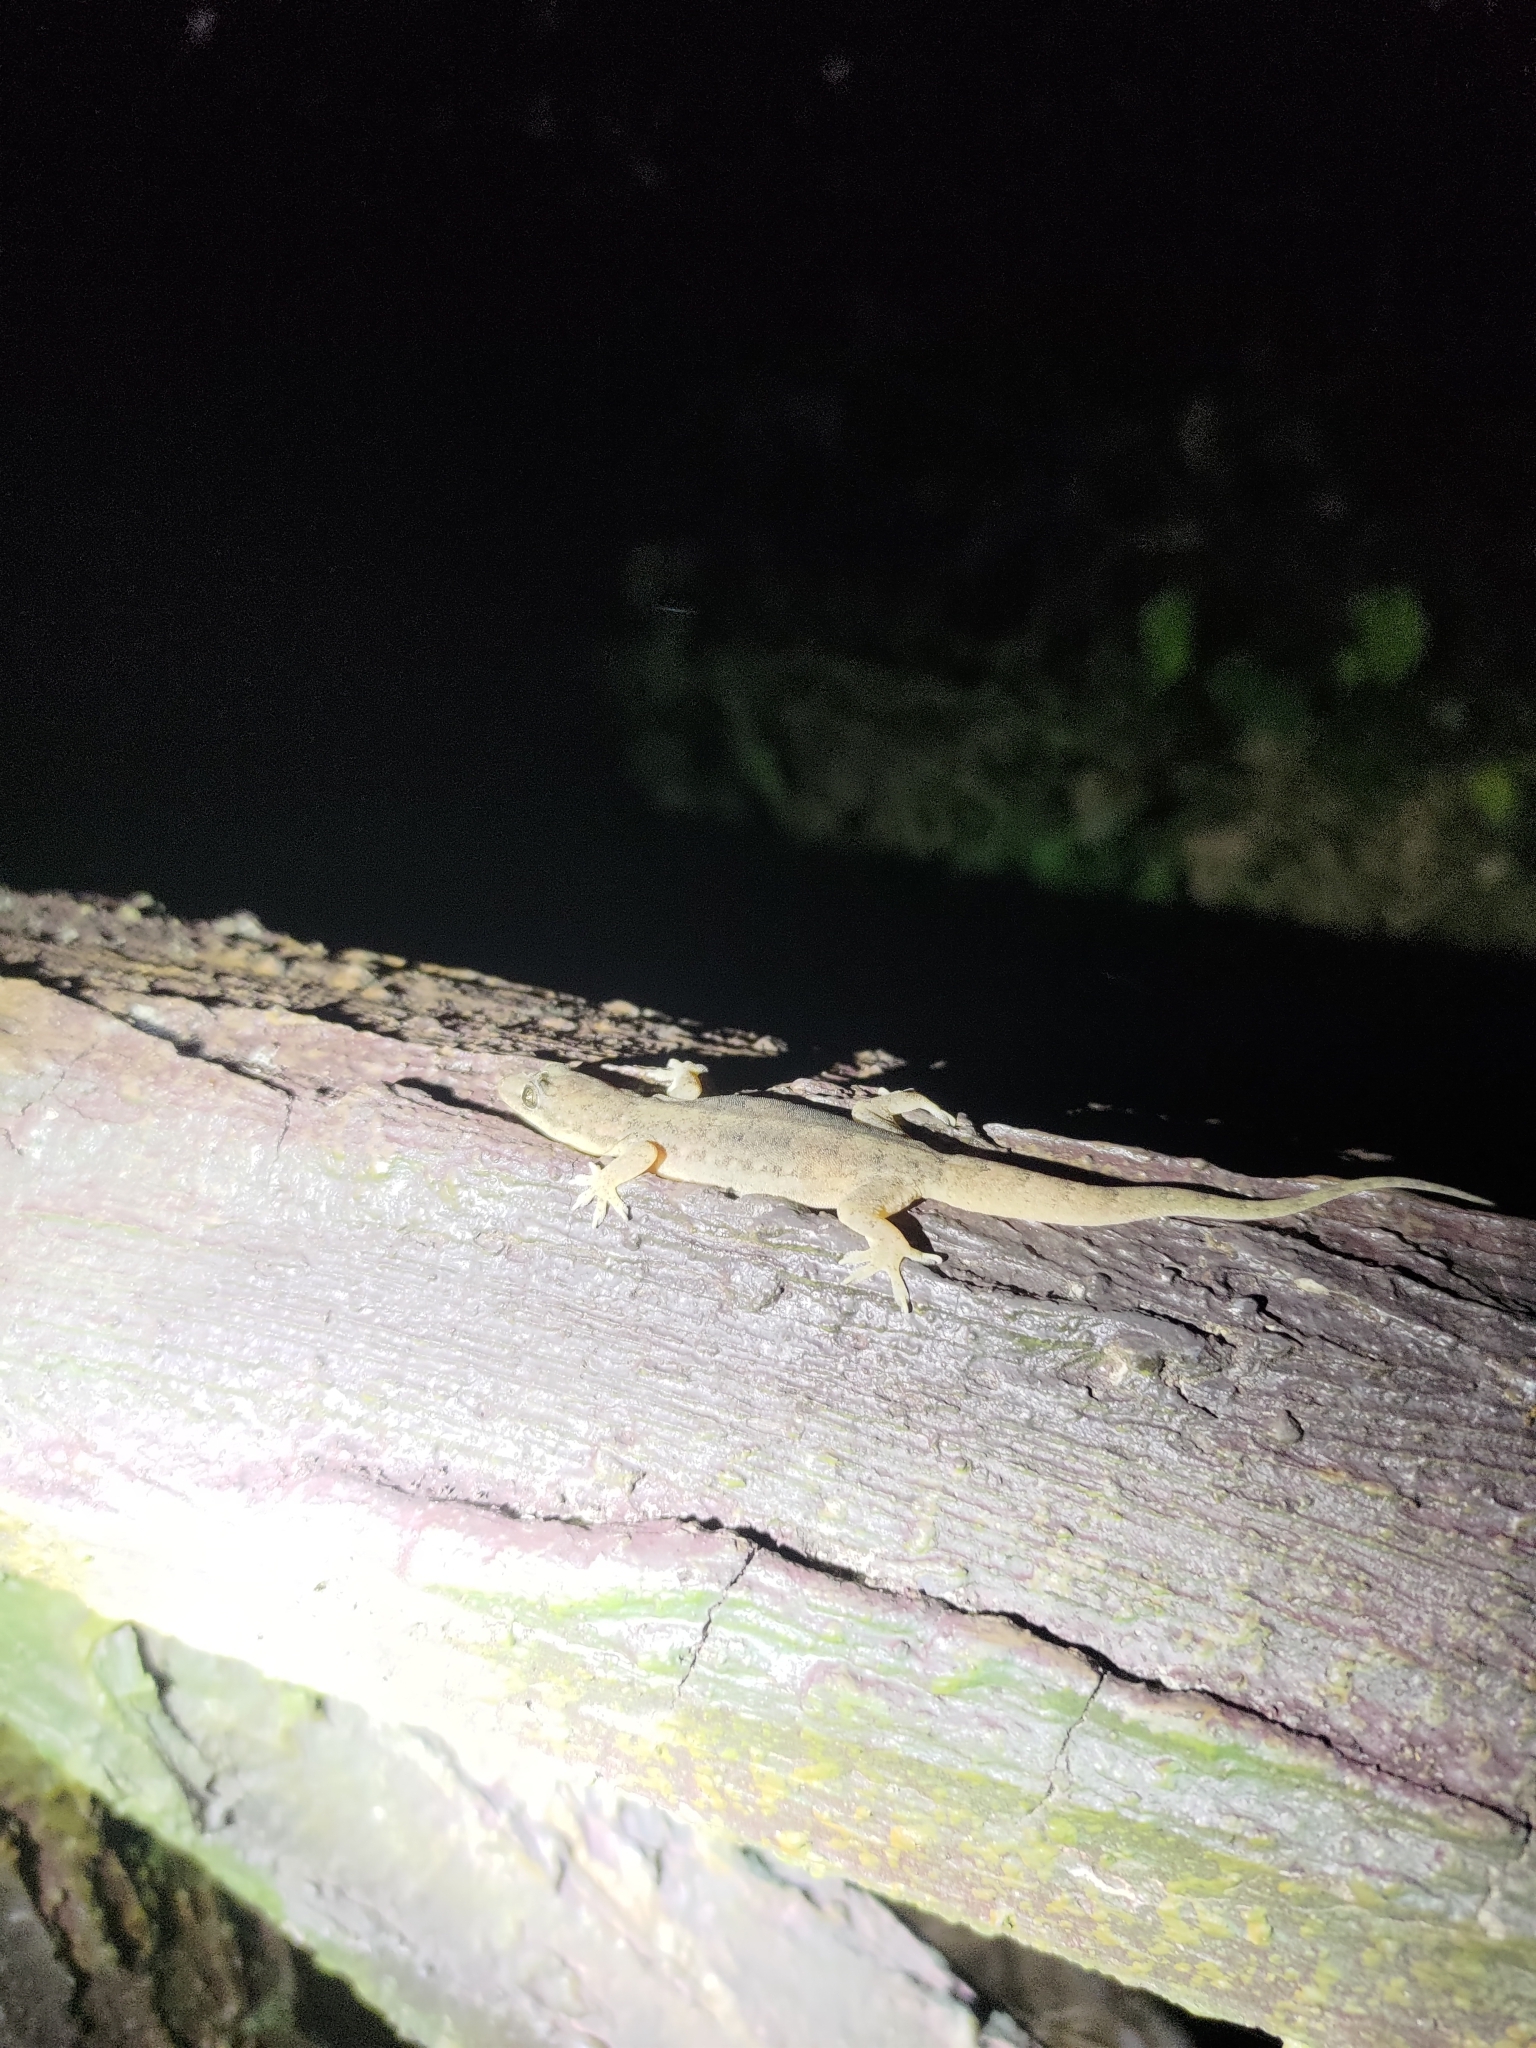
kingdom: Animalia
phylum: Chordata
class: Squamata
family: Gekkonidae
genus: Hemidactylus
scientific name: Hemidactylus bowringii
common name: Oriental leaf-toed gecko
